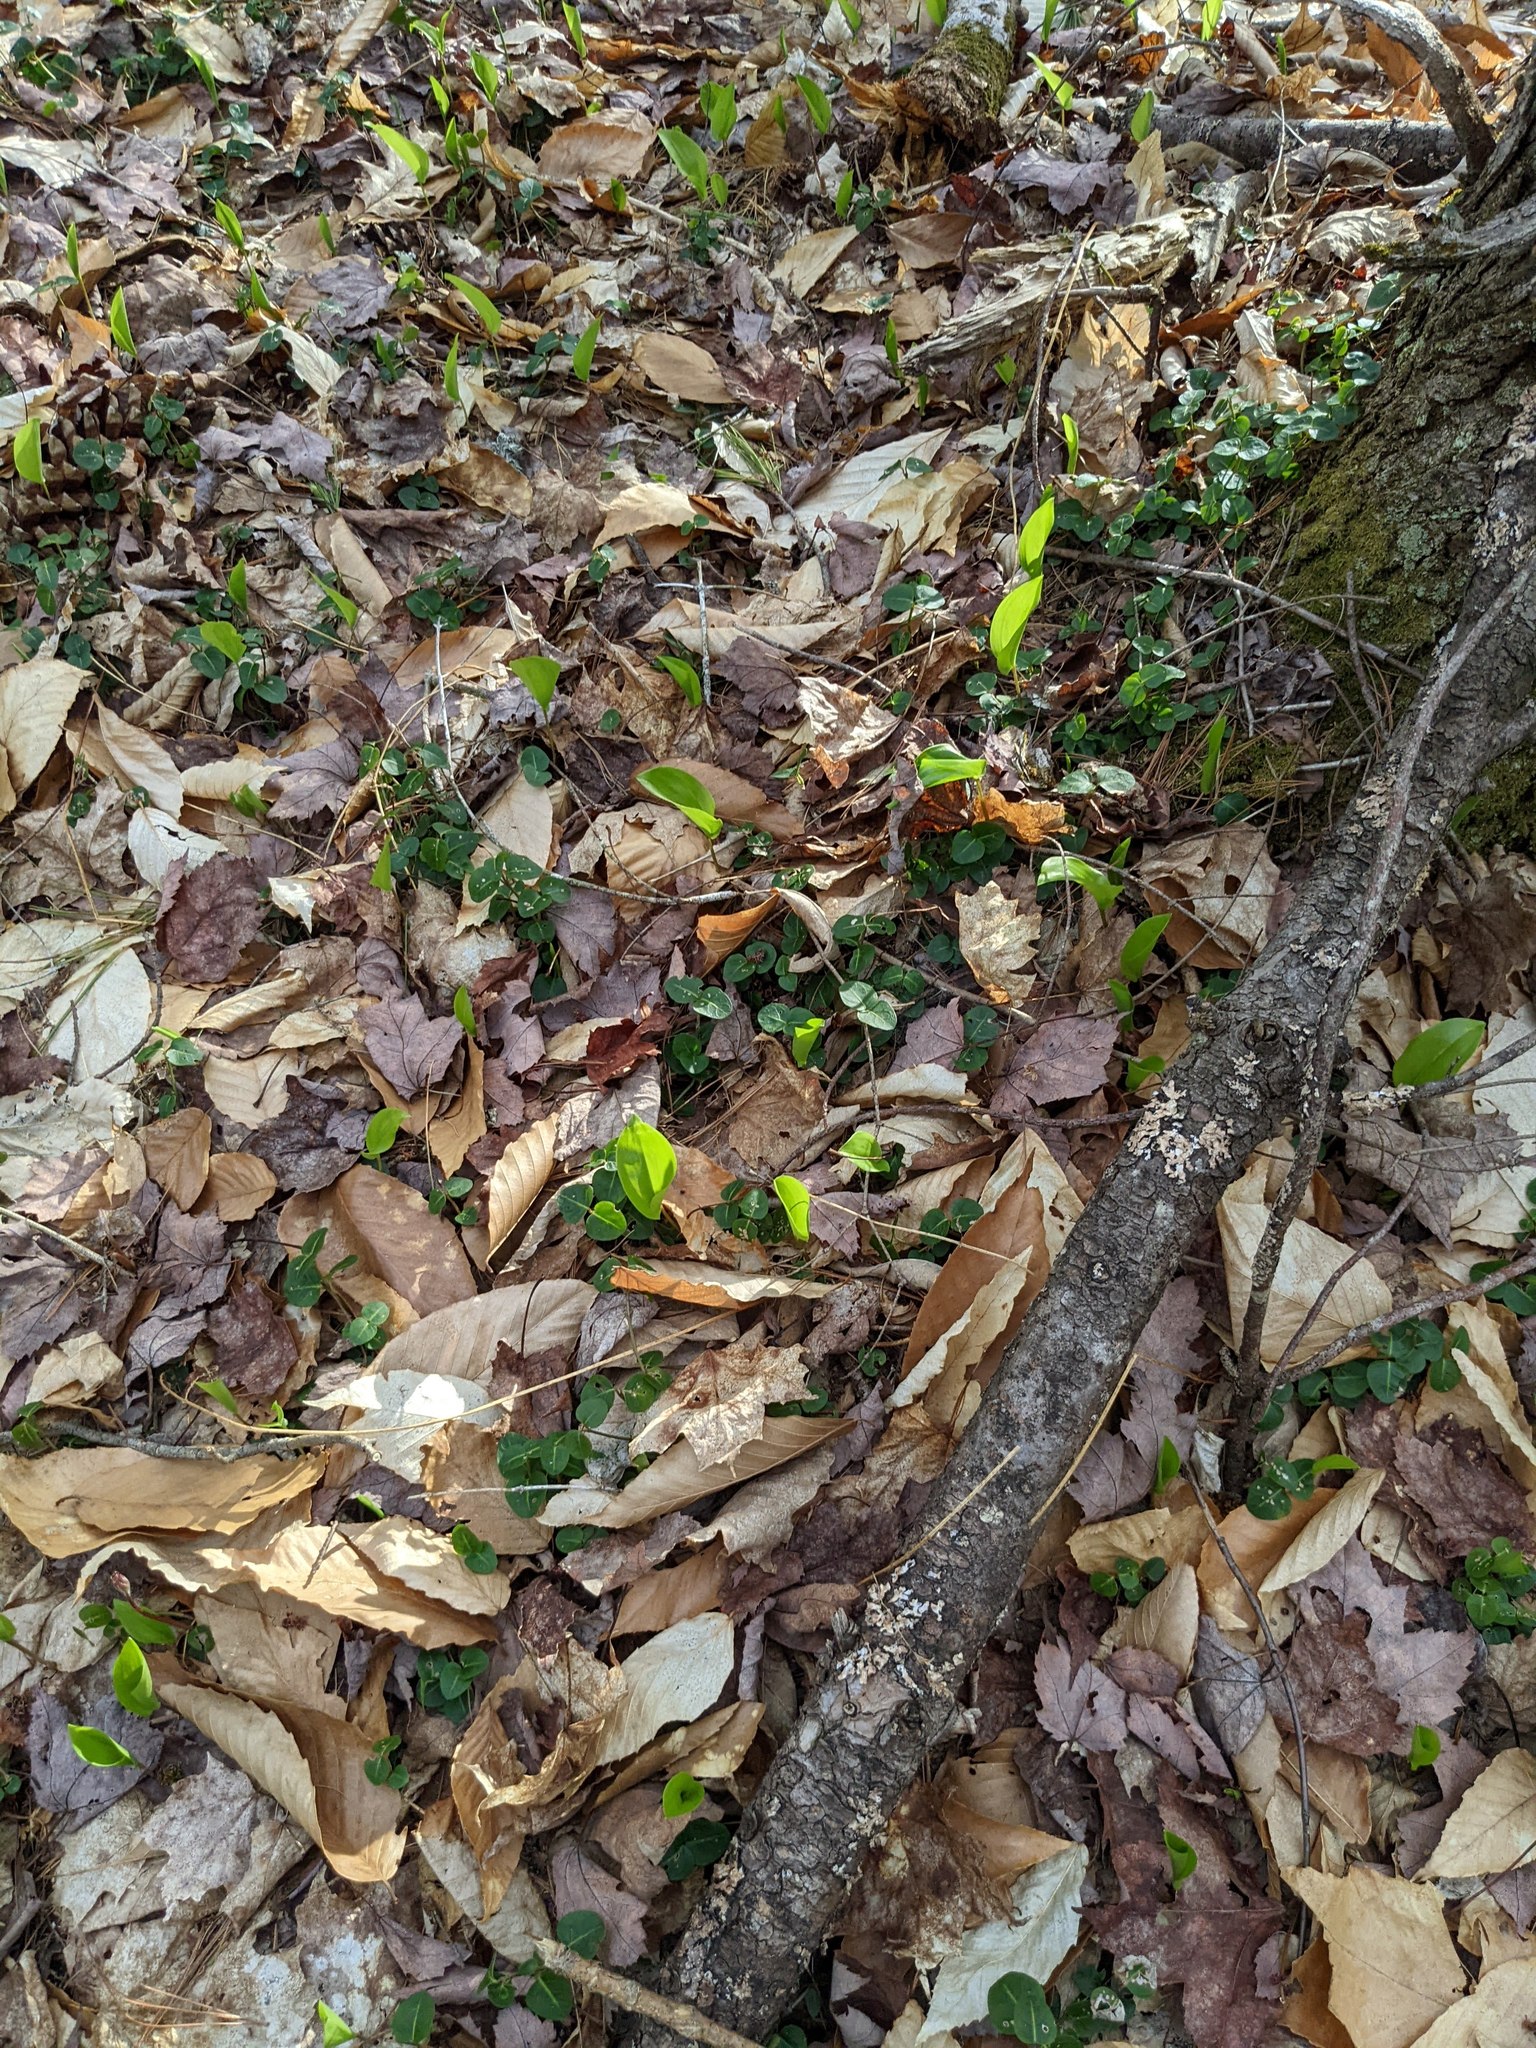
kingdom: Plantae
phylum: Tracheophyta
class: Liliopsida
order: Asparagales
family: Asparagaceae
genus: Maianthemum
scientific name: Maianthemum canadense
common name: False lily-of-the-valley
